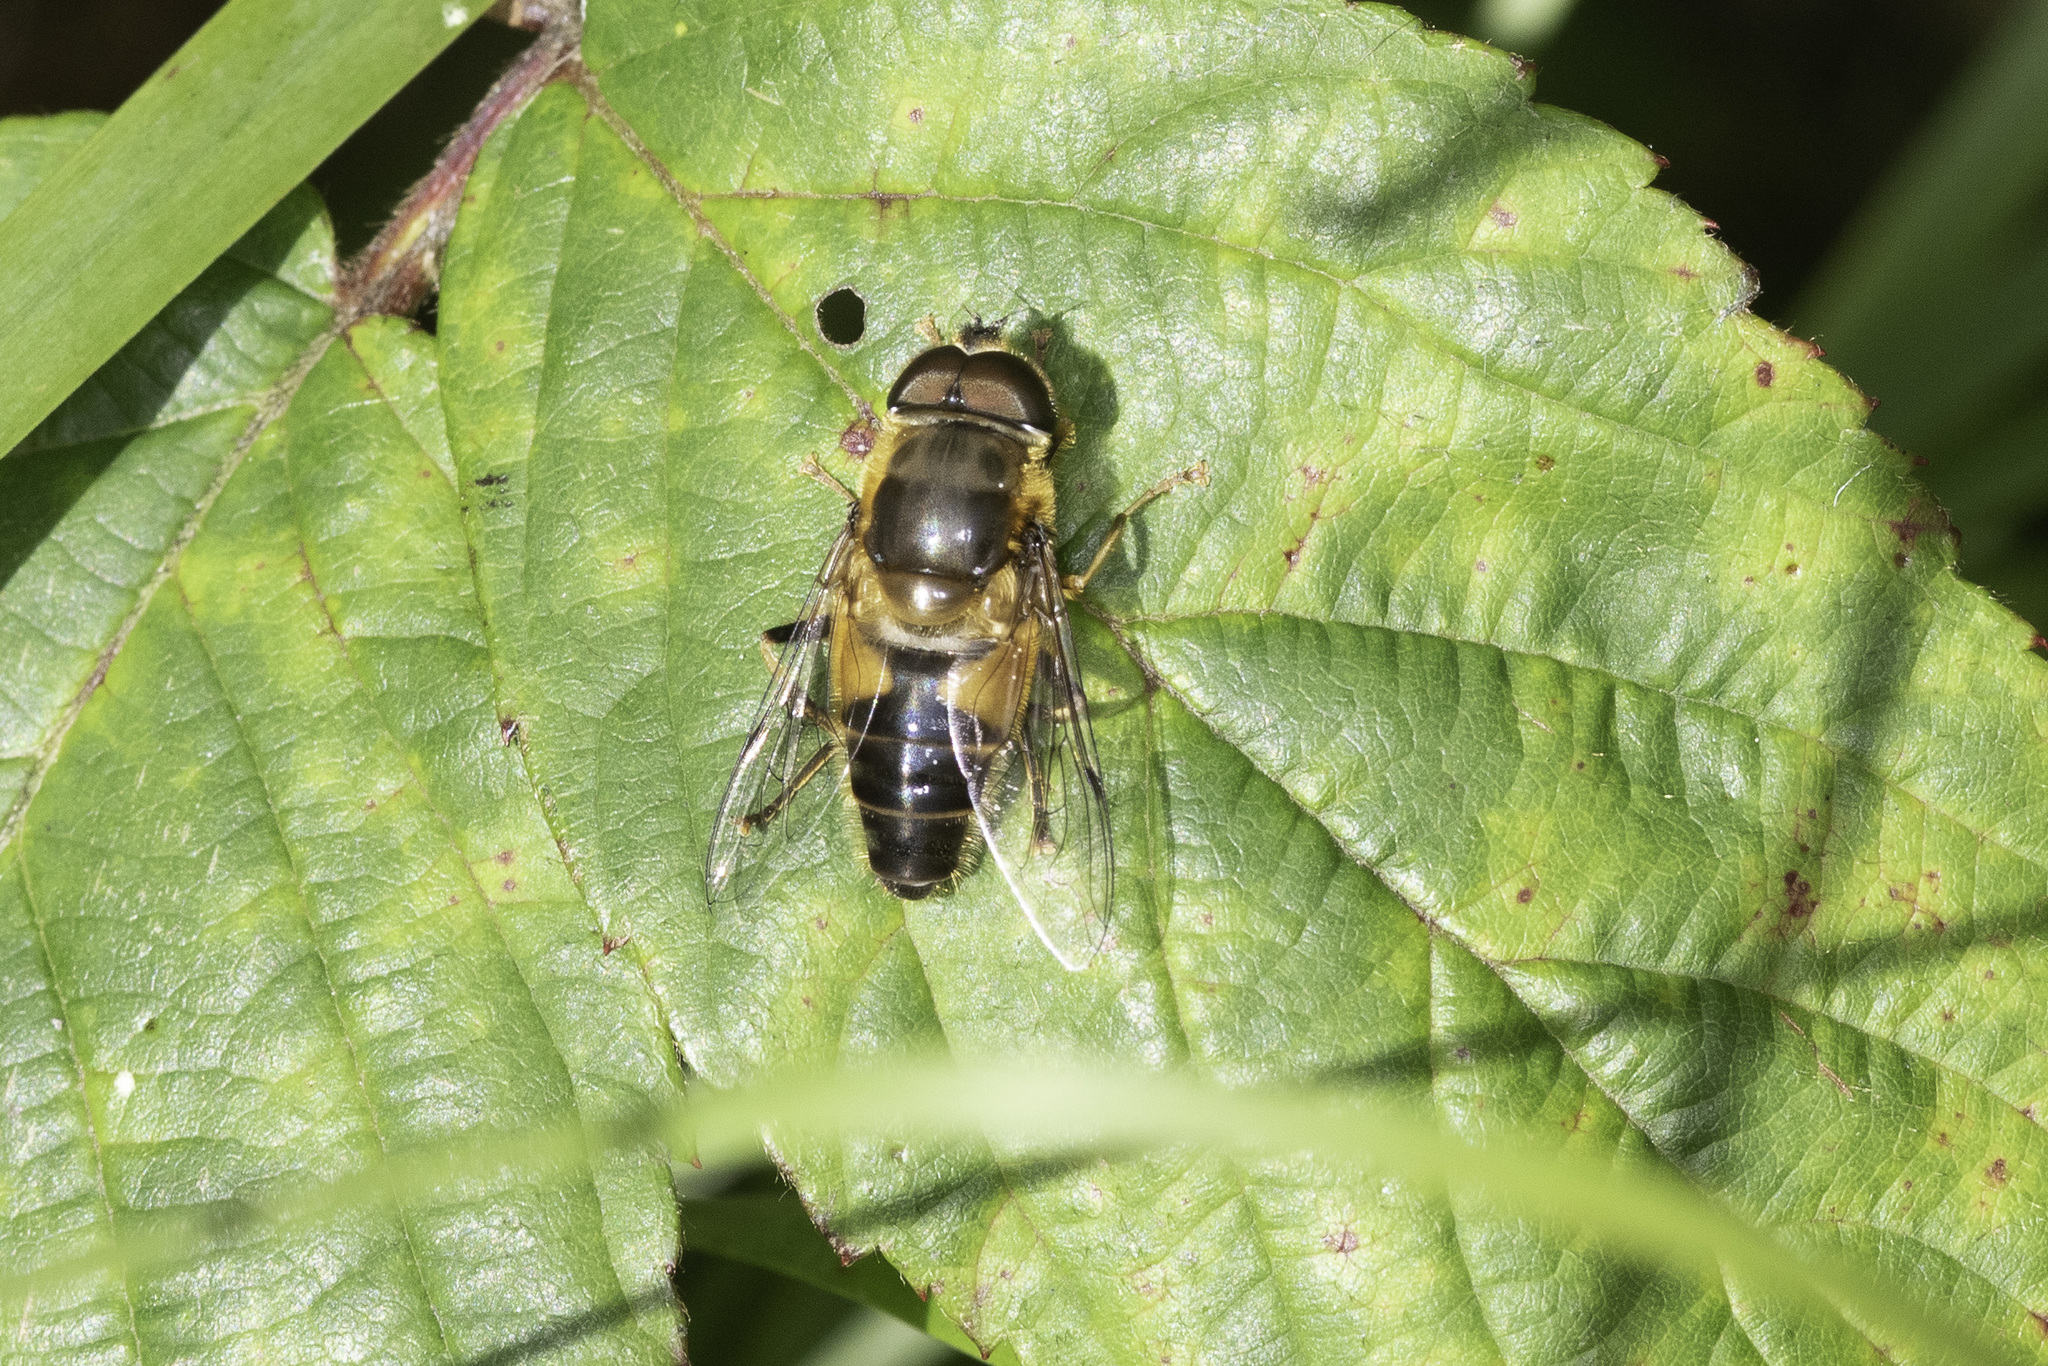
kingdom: Animalia
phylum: Arthropoda
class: Insecta
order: Diptera
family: Syrphidae
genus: Eristalis
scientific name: Eristalis pertinax
